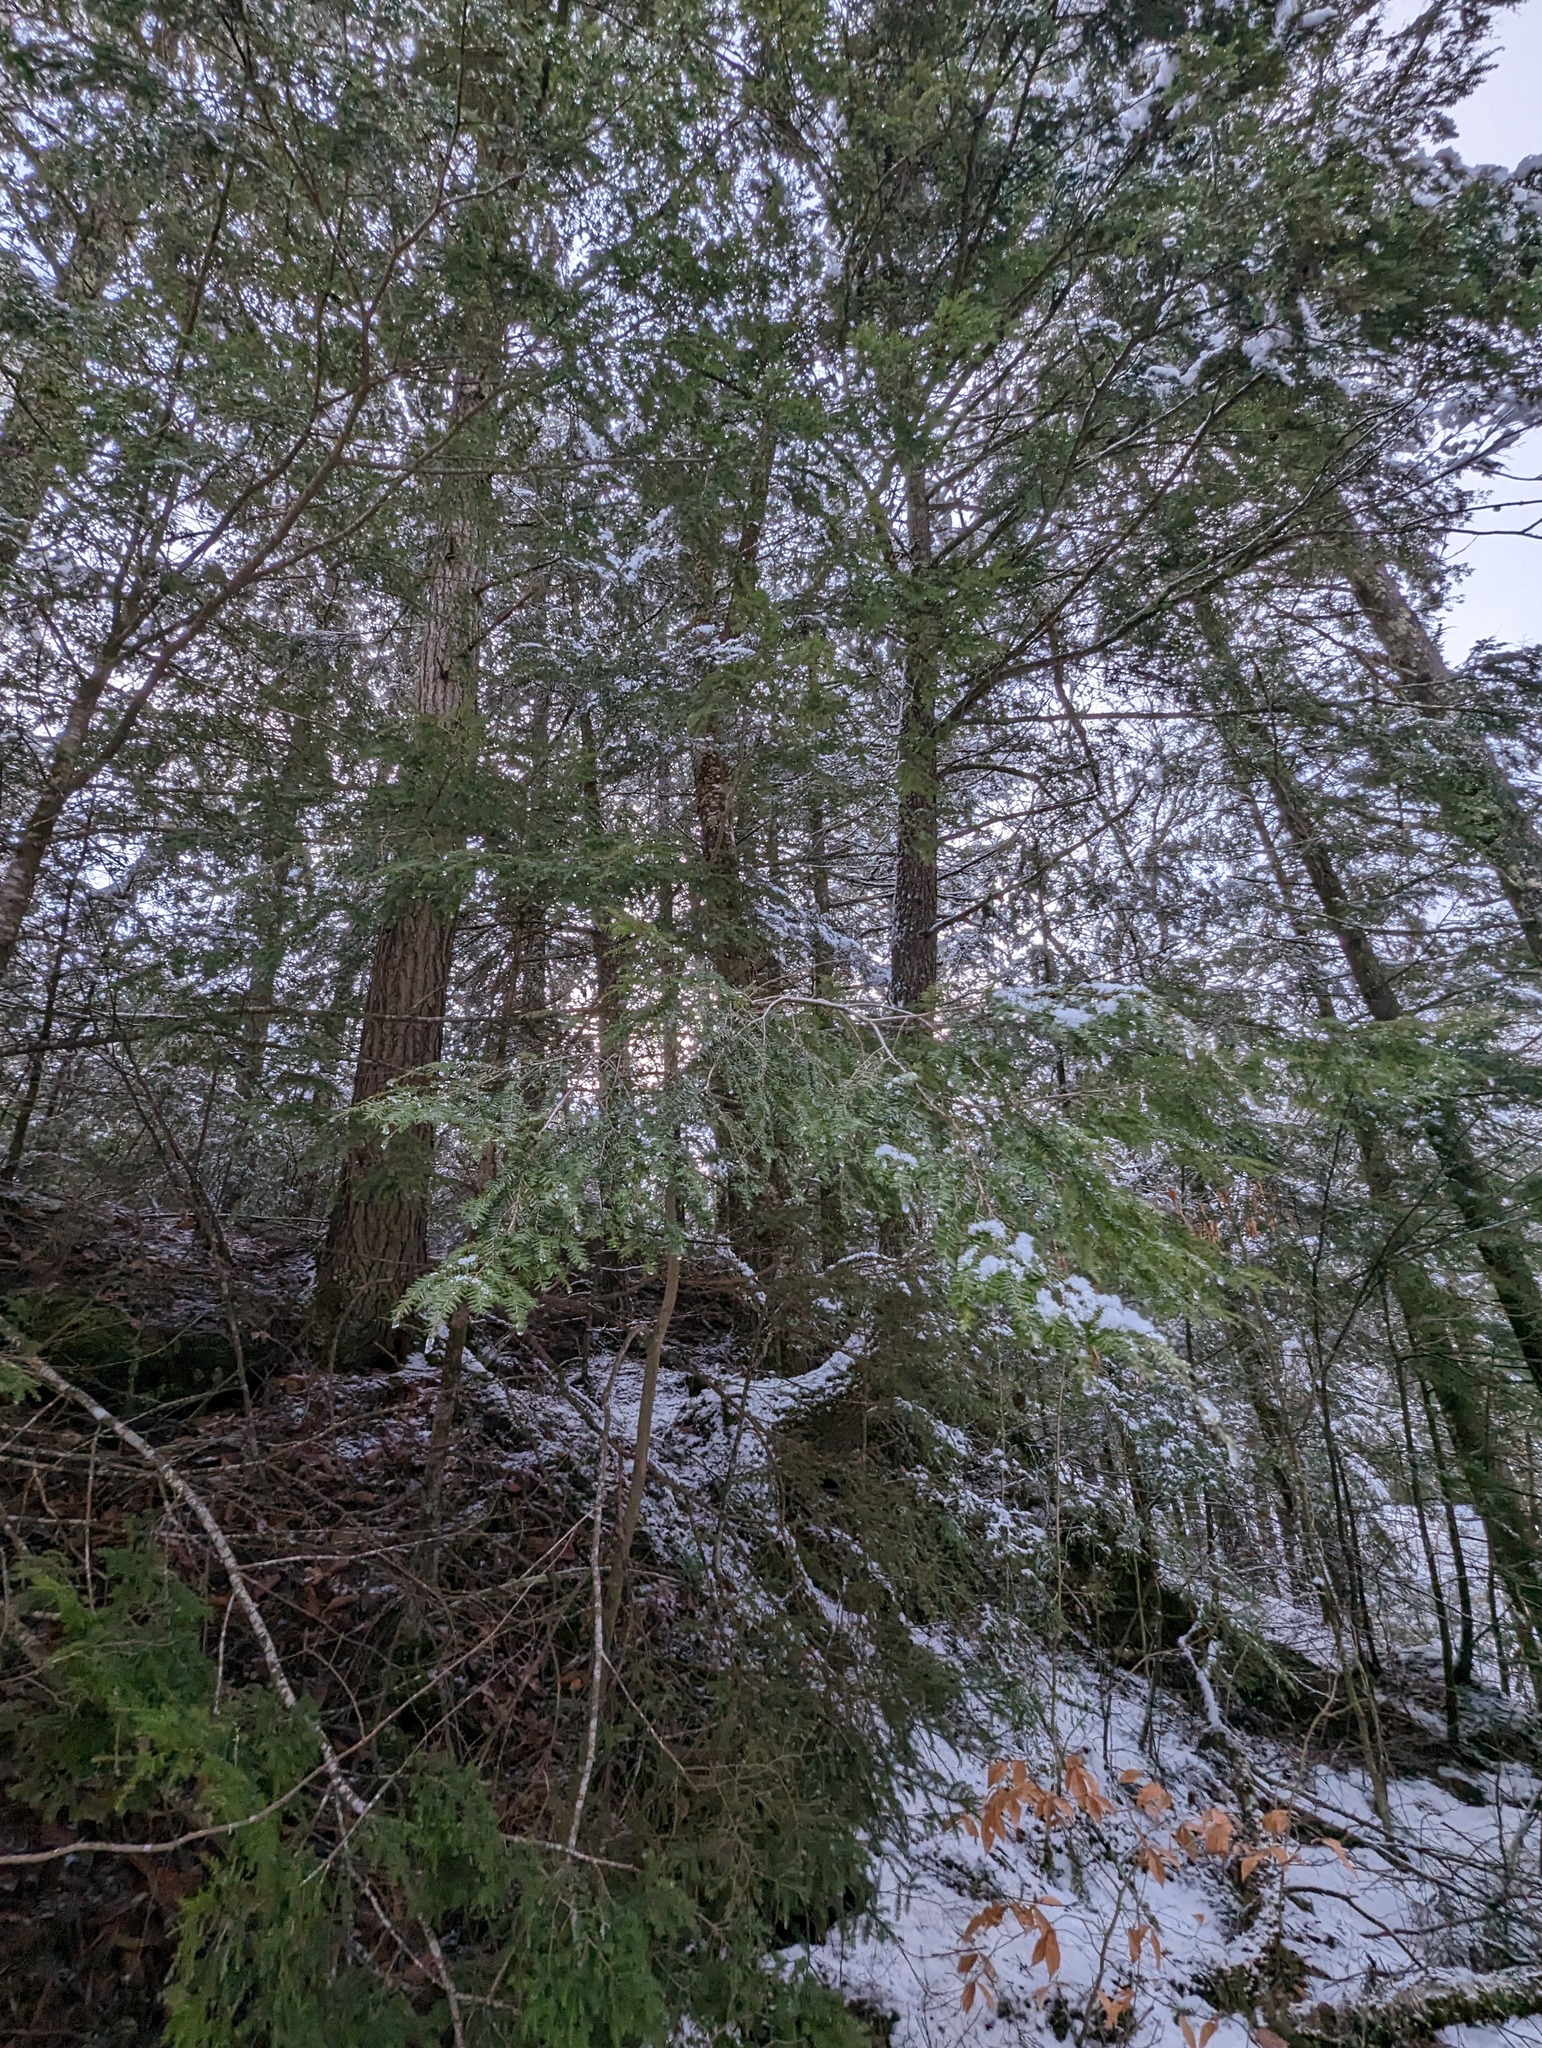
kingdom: Plantae
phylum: Tracheophyta
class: Pinopsida
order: Pinales
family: Pinaceae
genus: Tsuga
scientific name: Tsuga canadensis
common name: Eastern hemlock
